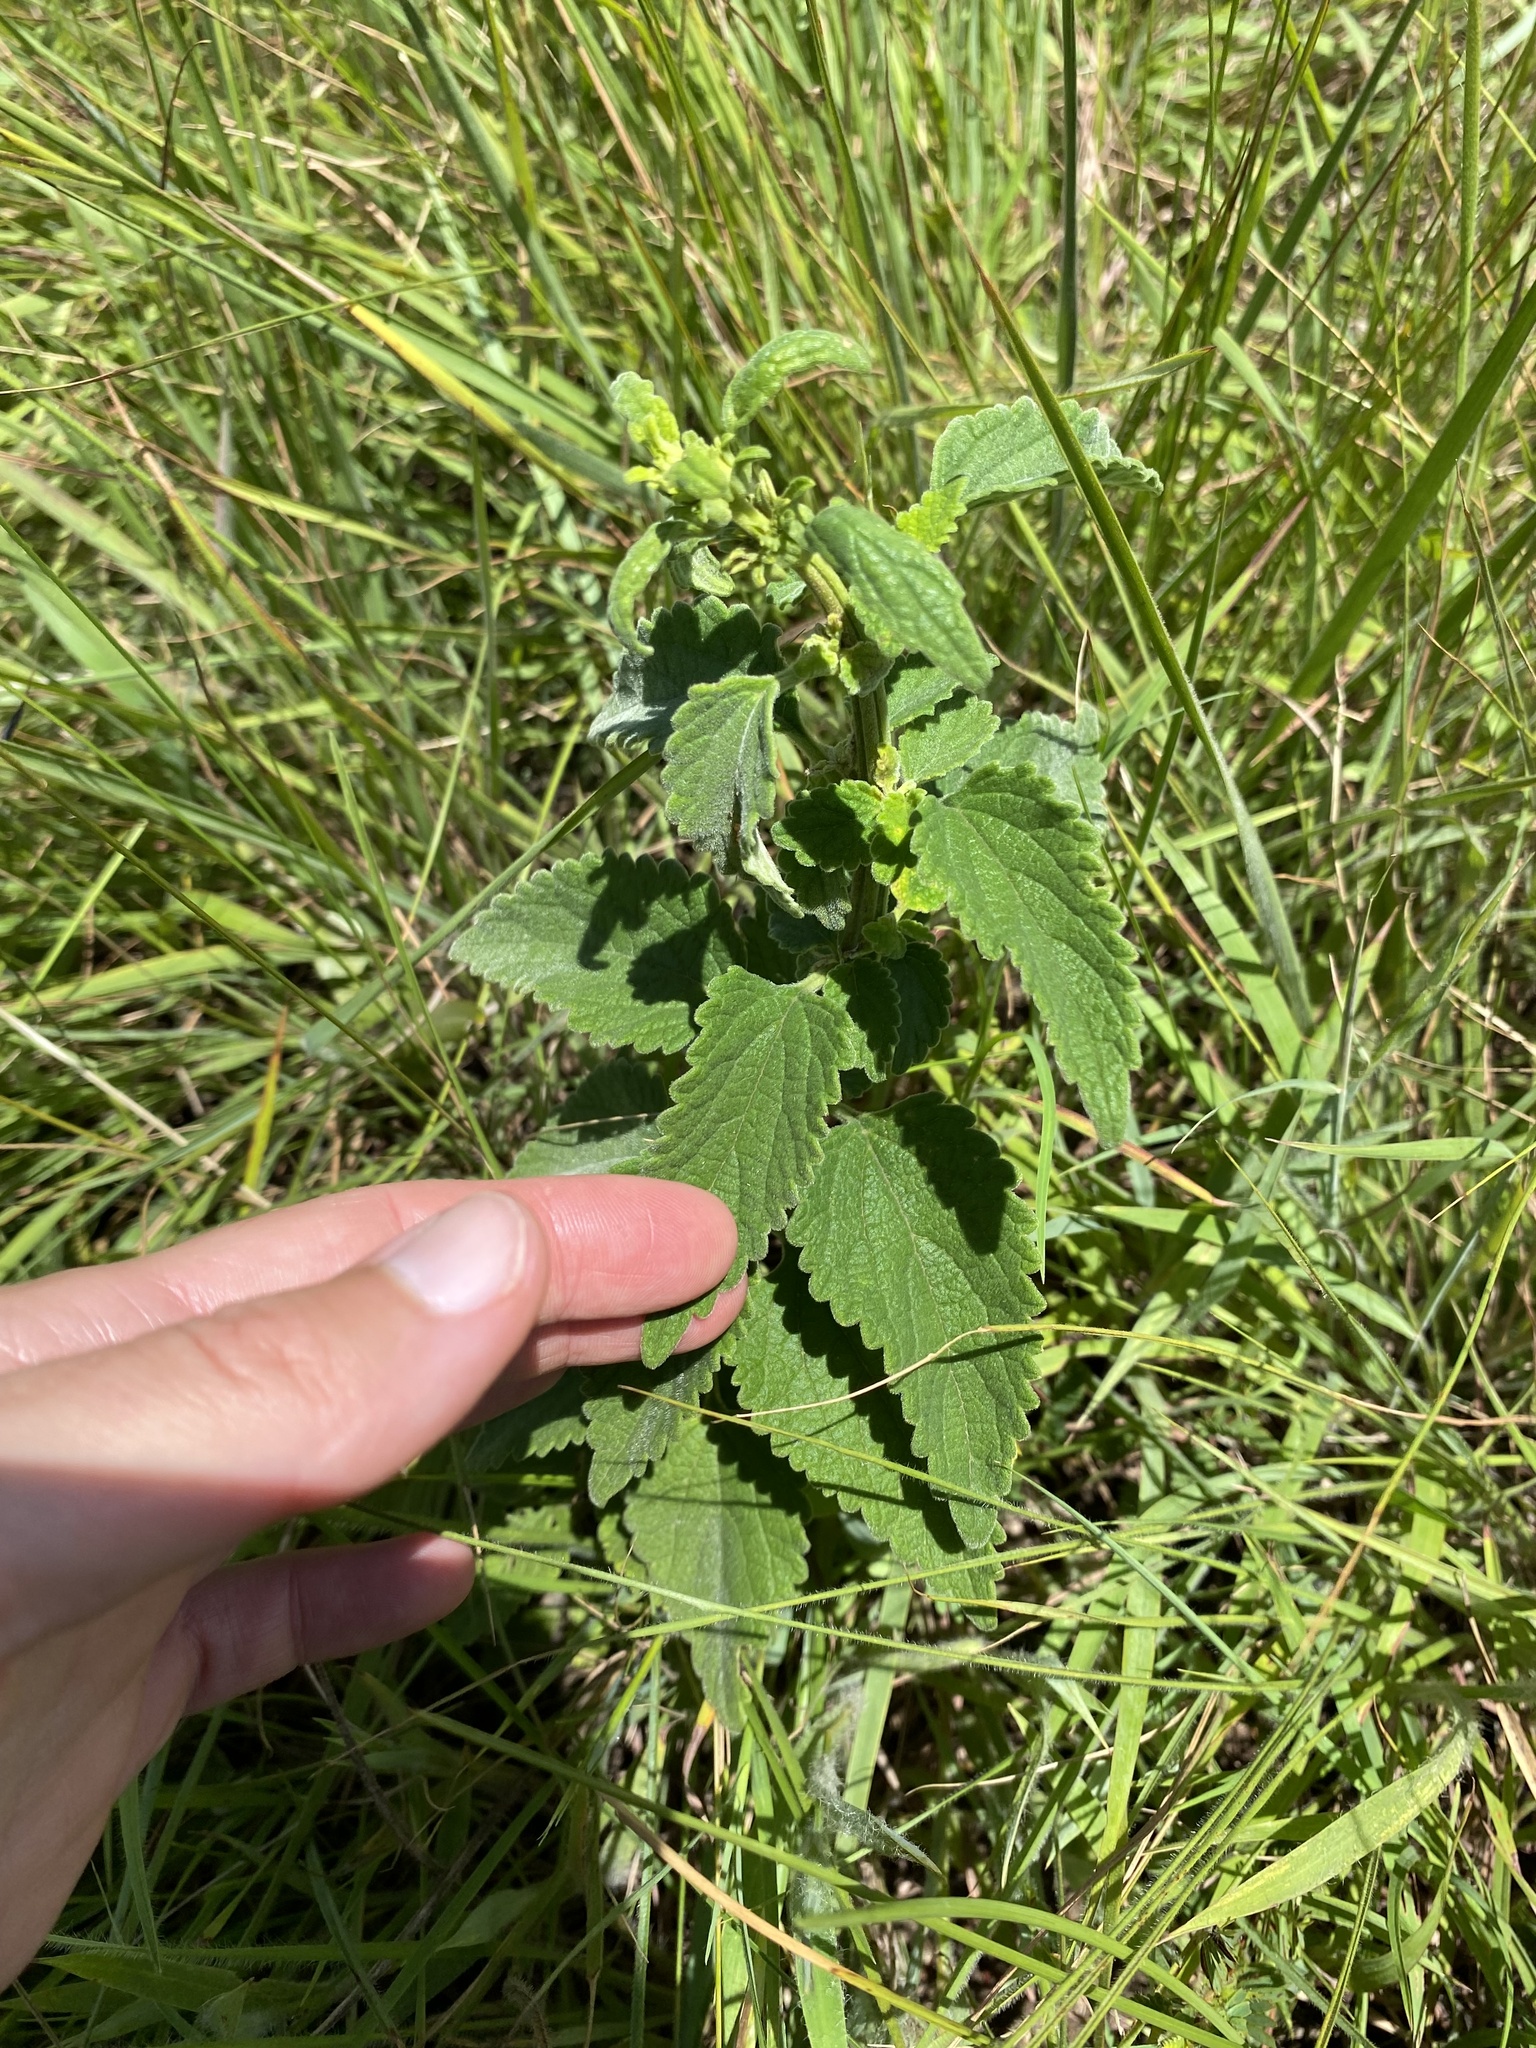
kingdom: Plantae
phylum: Tracheophyta
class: Magnoliopsida
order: Lamiales
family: Lamiaceae
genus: Leonotis
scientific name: Leonotis ocymifolia
